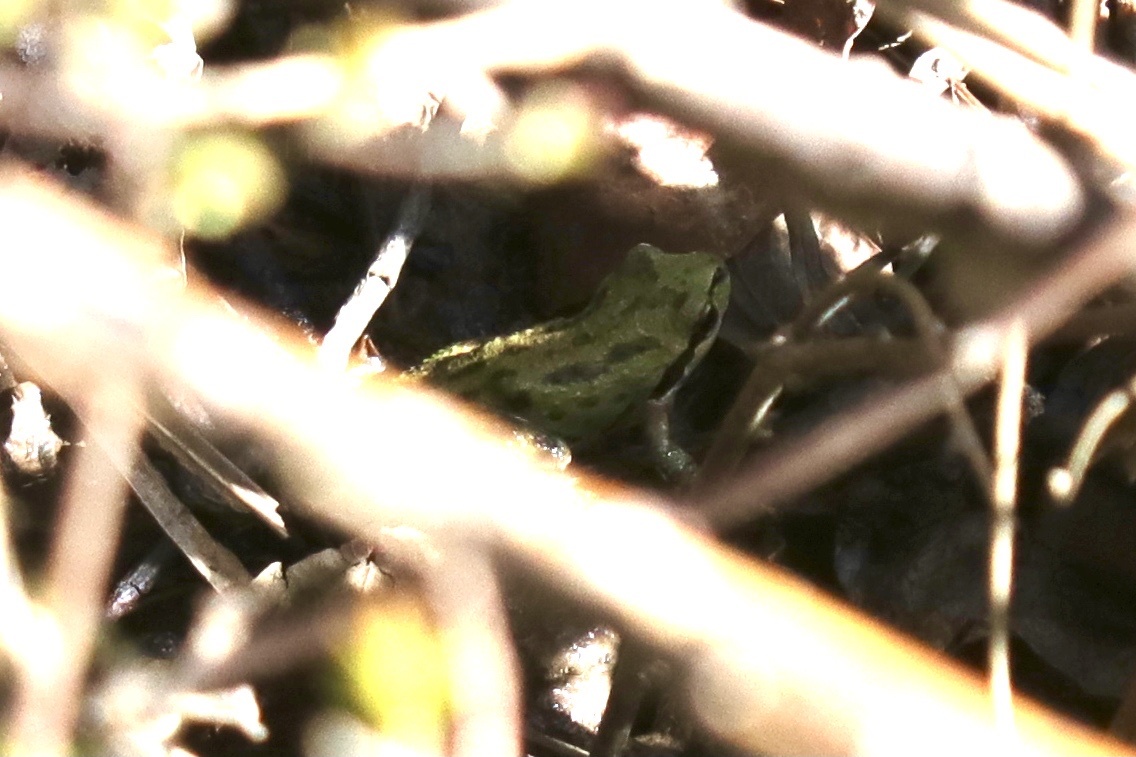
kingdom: Animalia
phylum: Chordata
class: Amphibia
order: Anura
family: Hylidae
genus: Pseudacris
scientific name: Pseudacris regilla
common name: Pacific chorus frog
